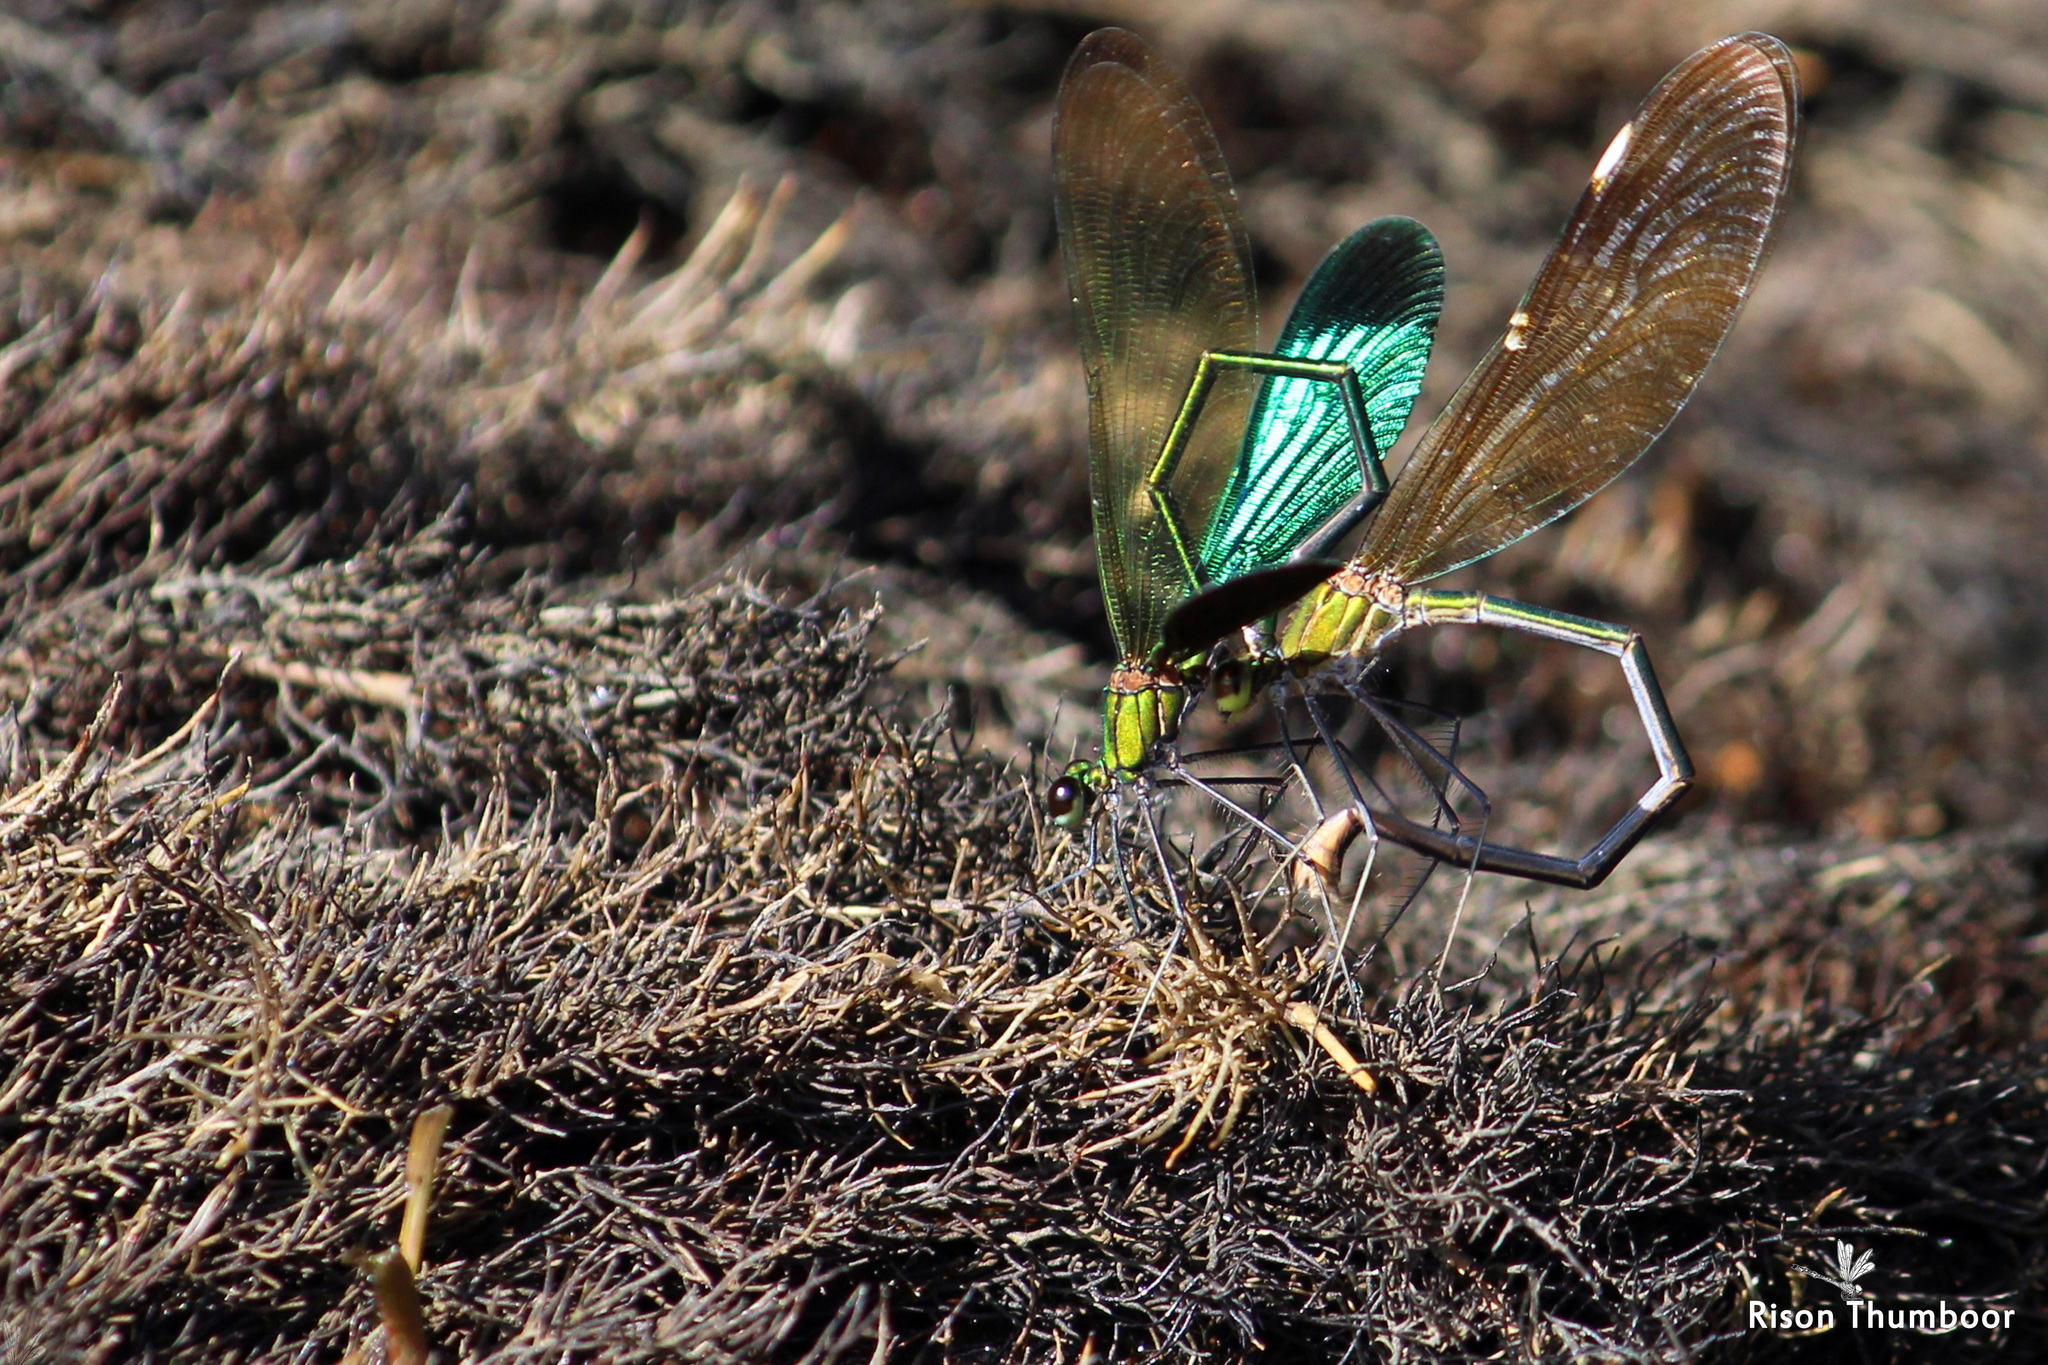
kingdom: Animalia
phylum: Arthropoda
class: Insecta
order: Odonata
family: Calopterygidae
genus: Neurobasis
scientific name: Neurobasis chinensis
